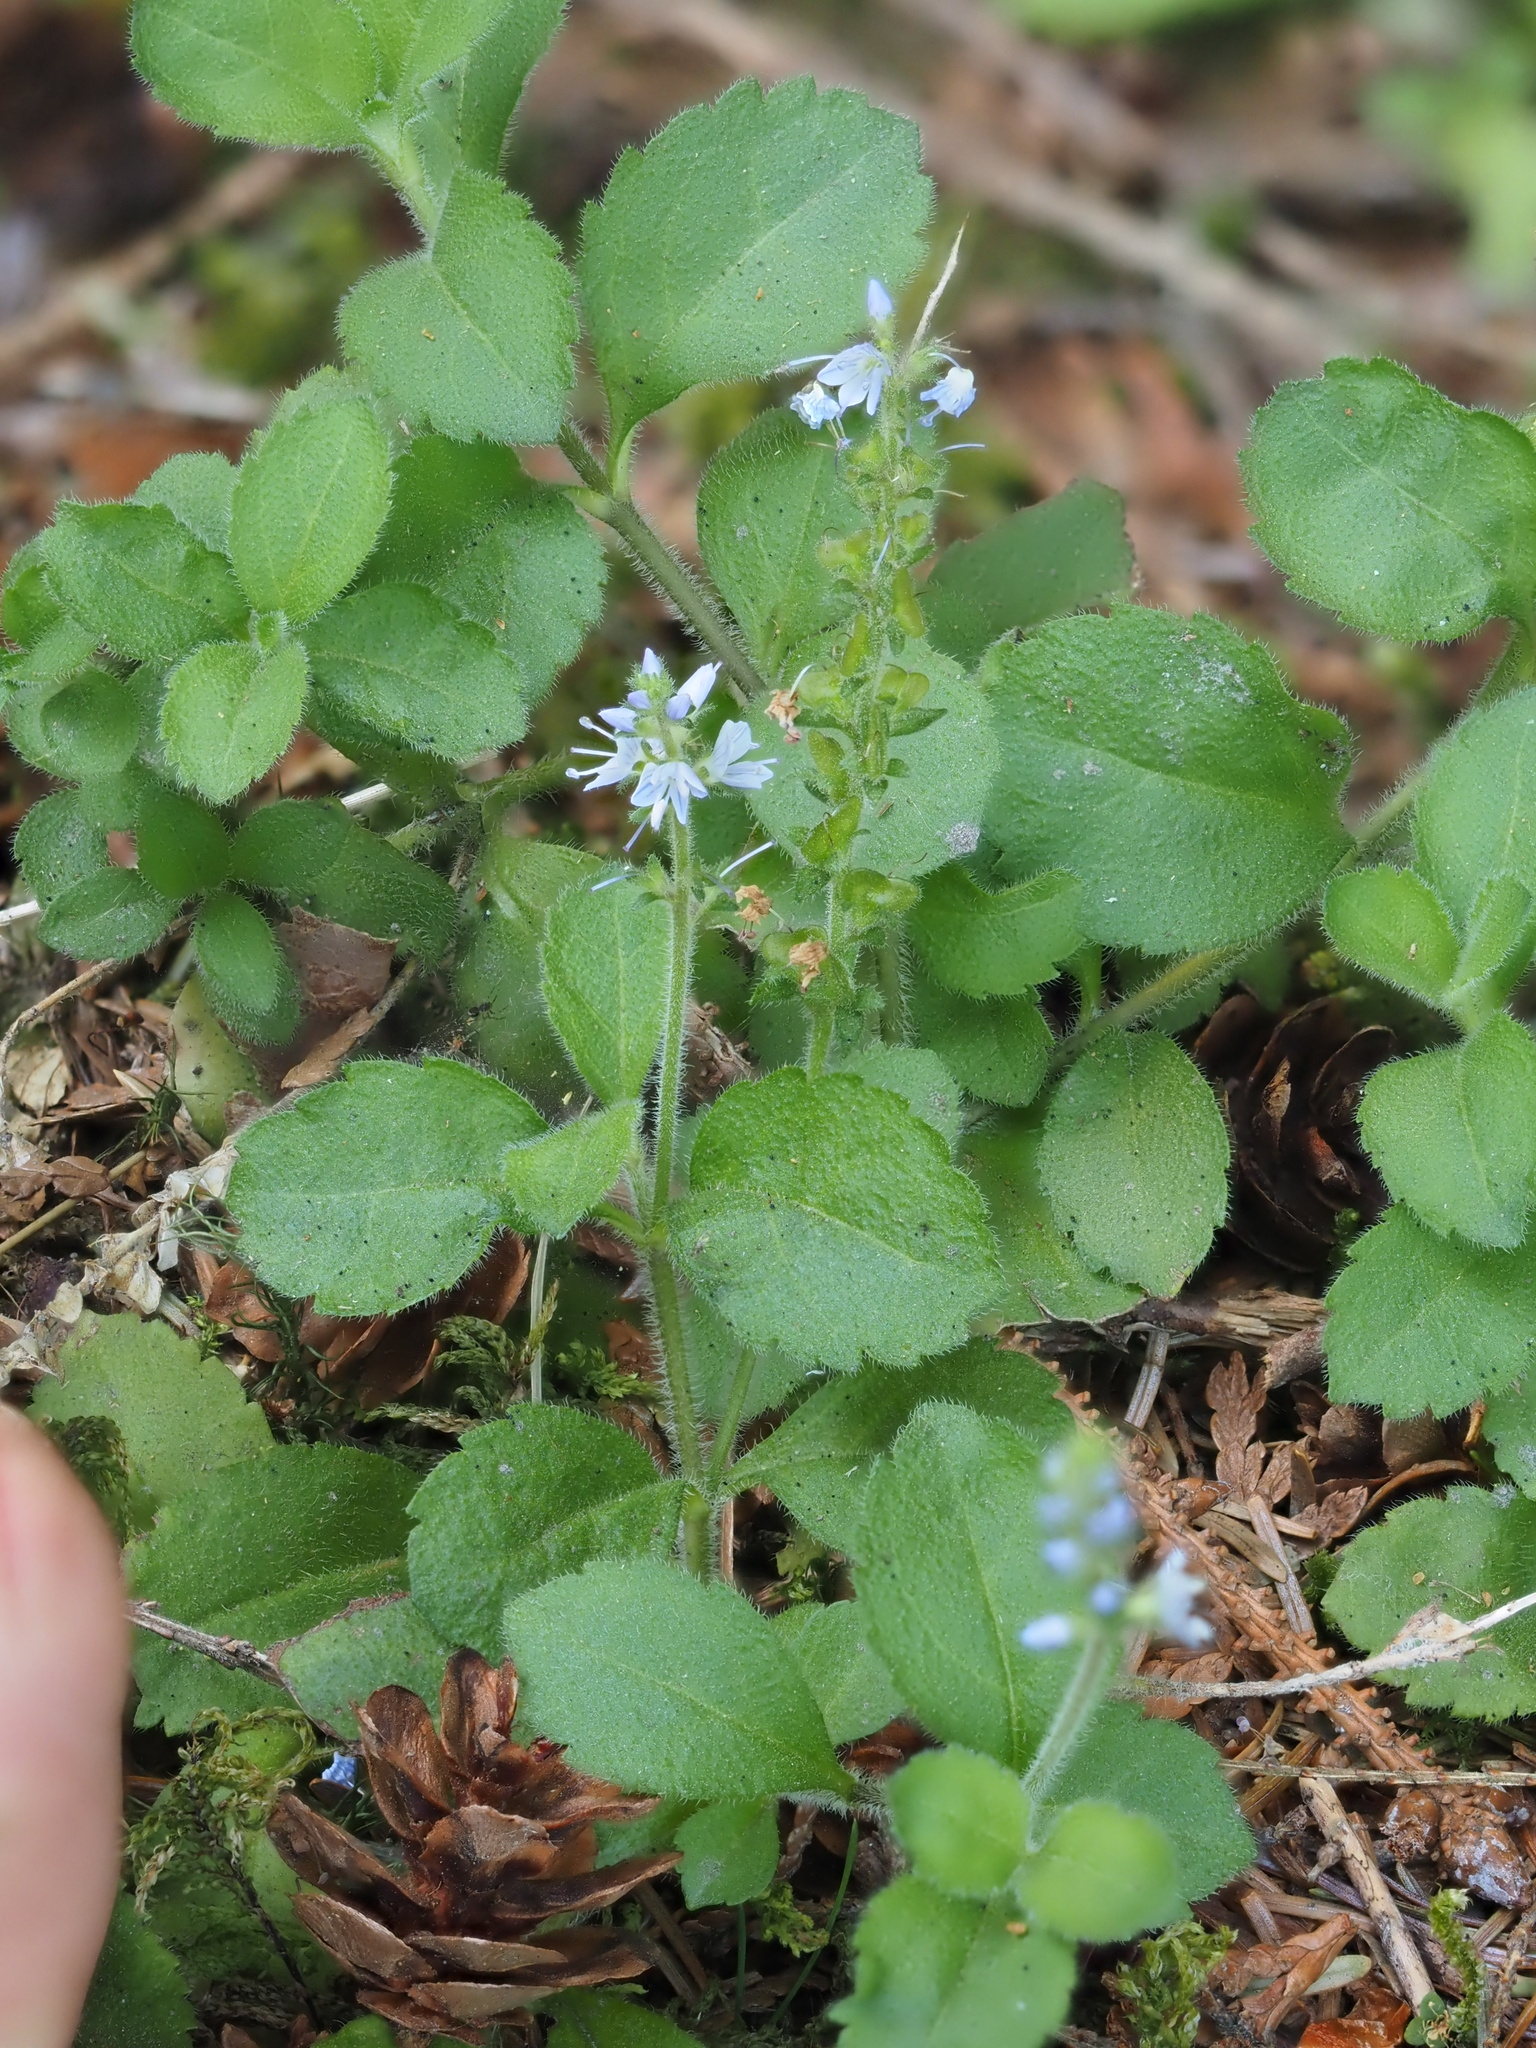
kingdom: Plantae
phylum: Tracheophyta
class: Magnoliopsida
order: Lamiales
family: Plantaginaceae
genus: Veronica
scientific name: Veronica officinalis
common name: Common speedwell
